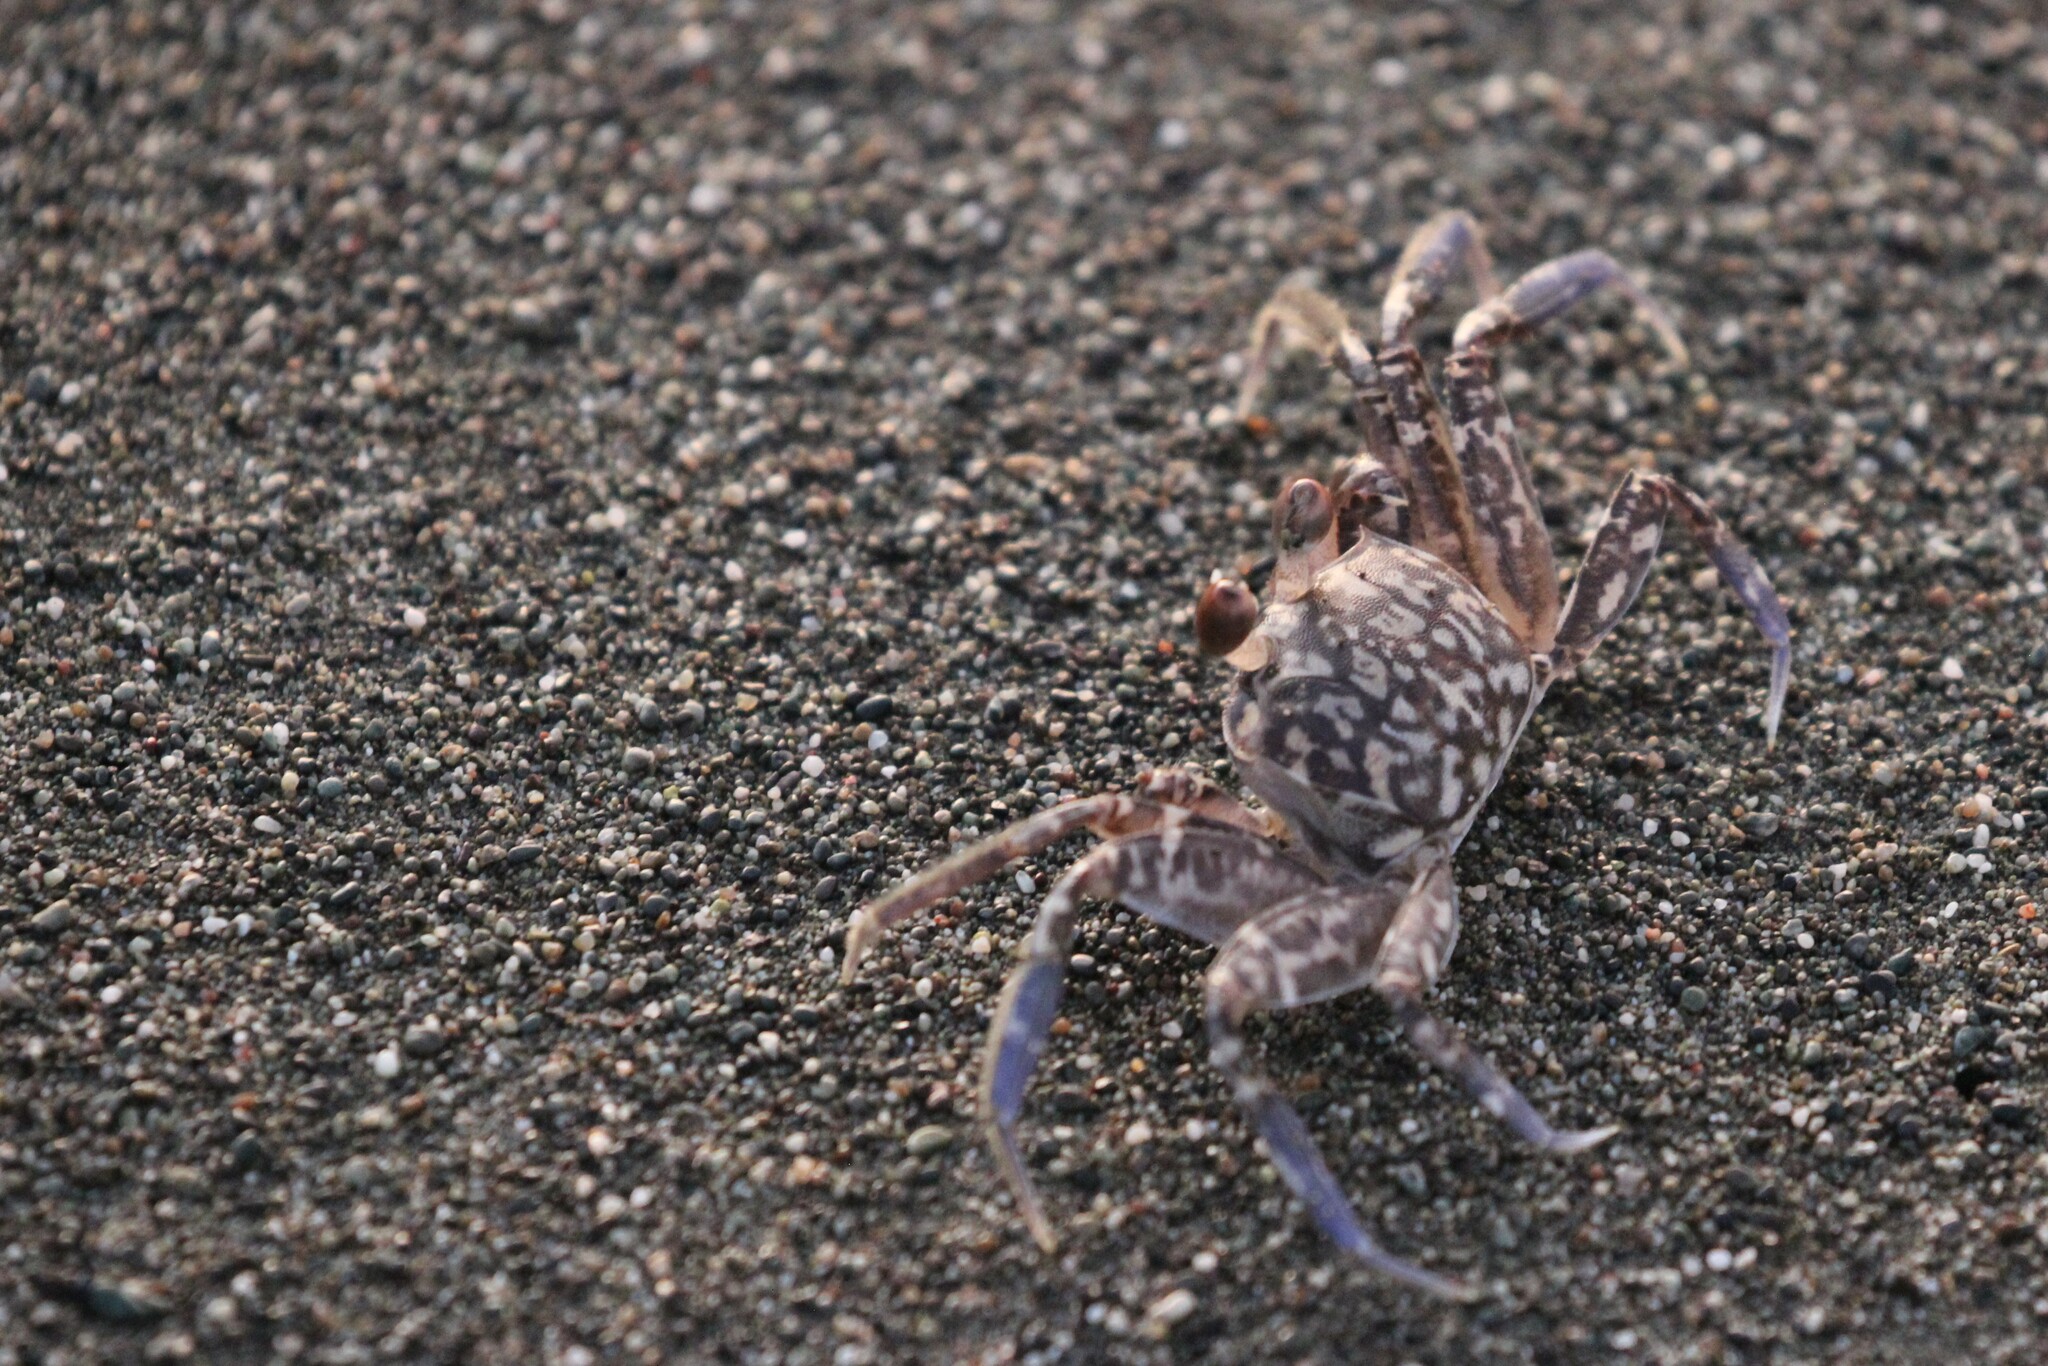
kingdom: Animalia
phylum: Arthropoda
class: Malacostraca
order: Decapoda
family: Ocypodidae
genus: Ocypode
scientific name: Ocypode gaudichaudii
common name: Pacific ghost crab
